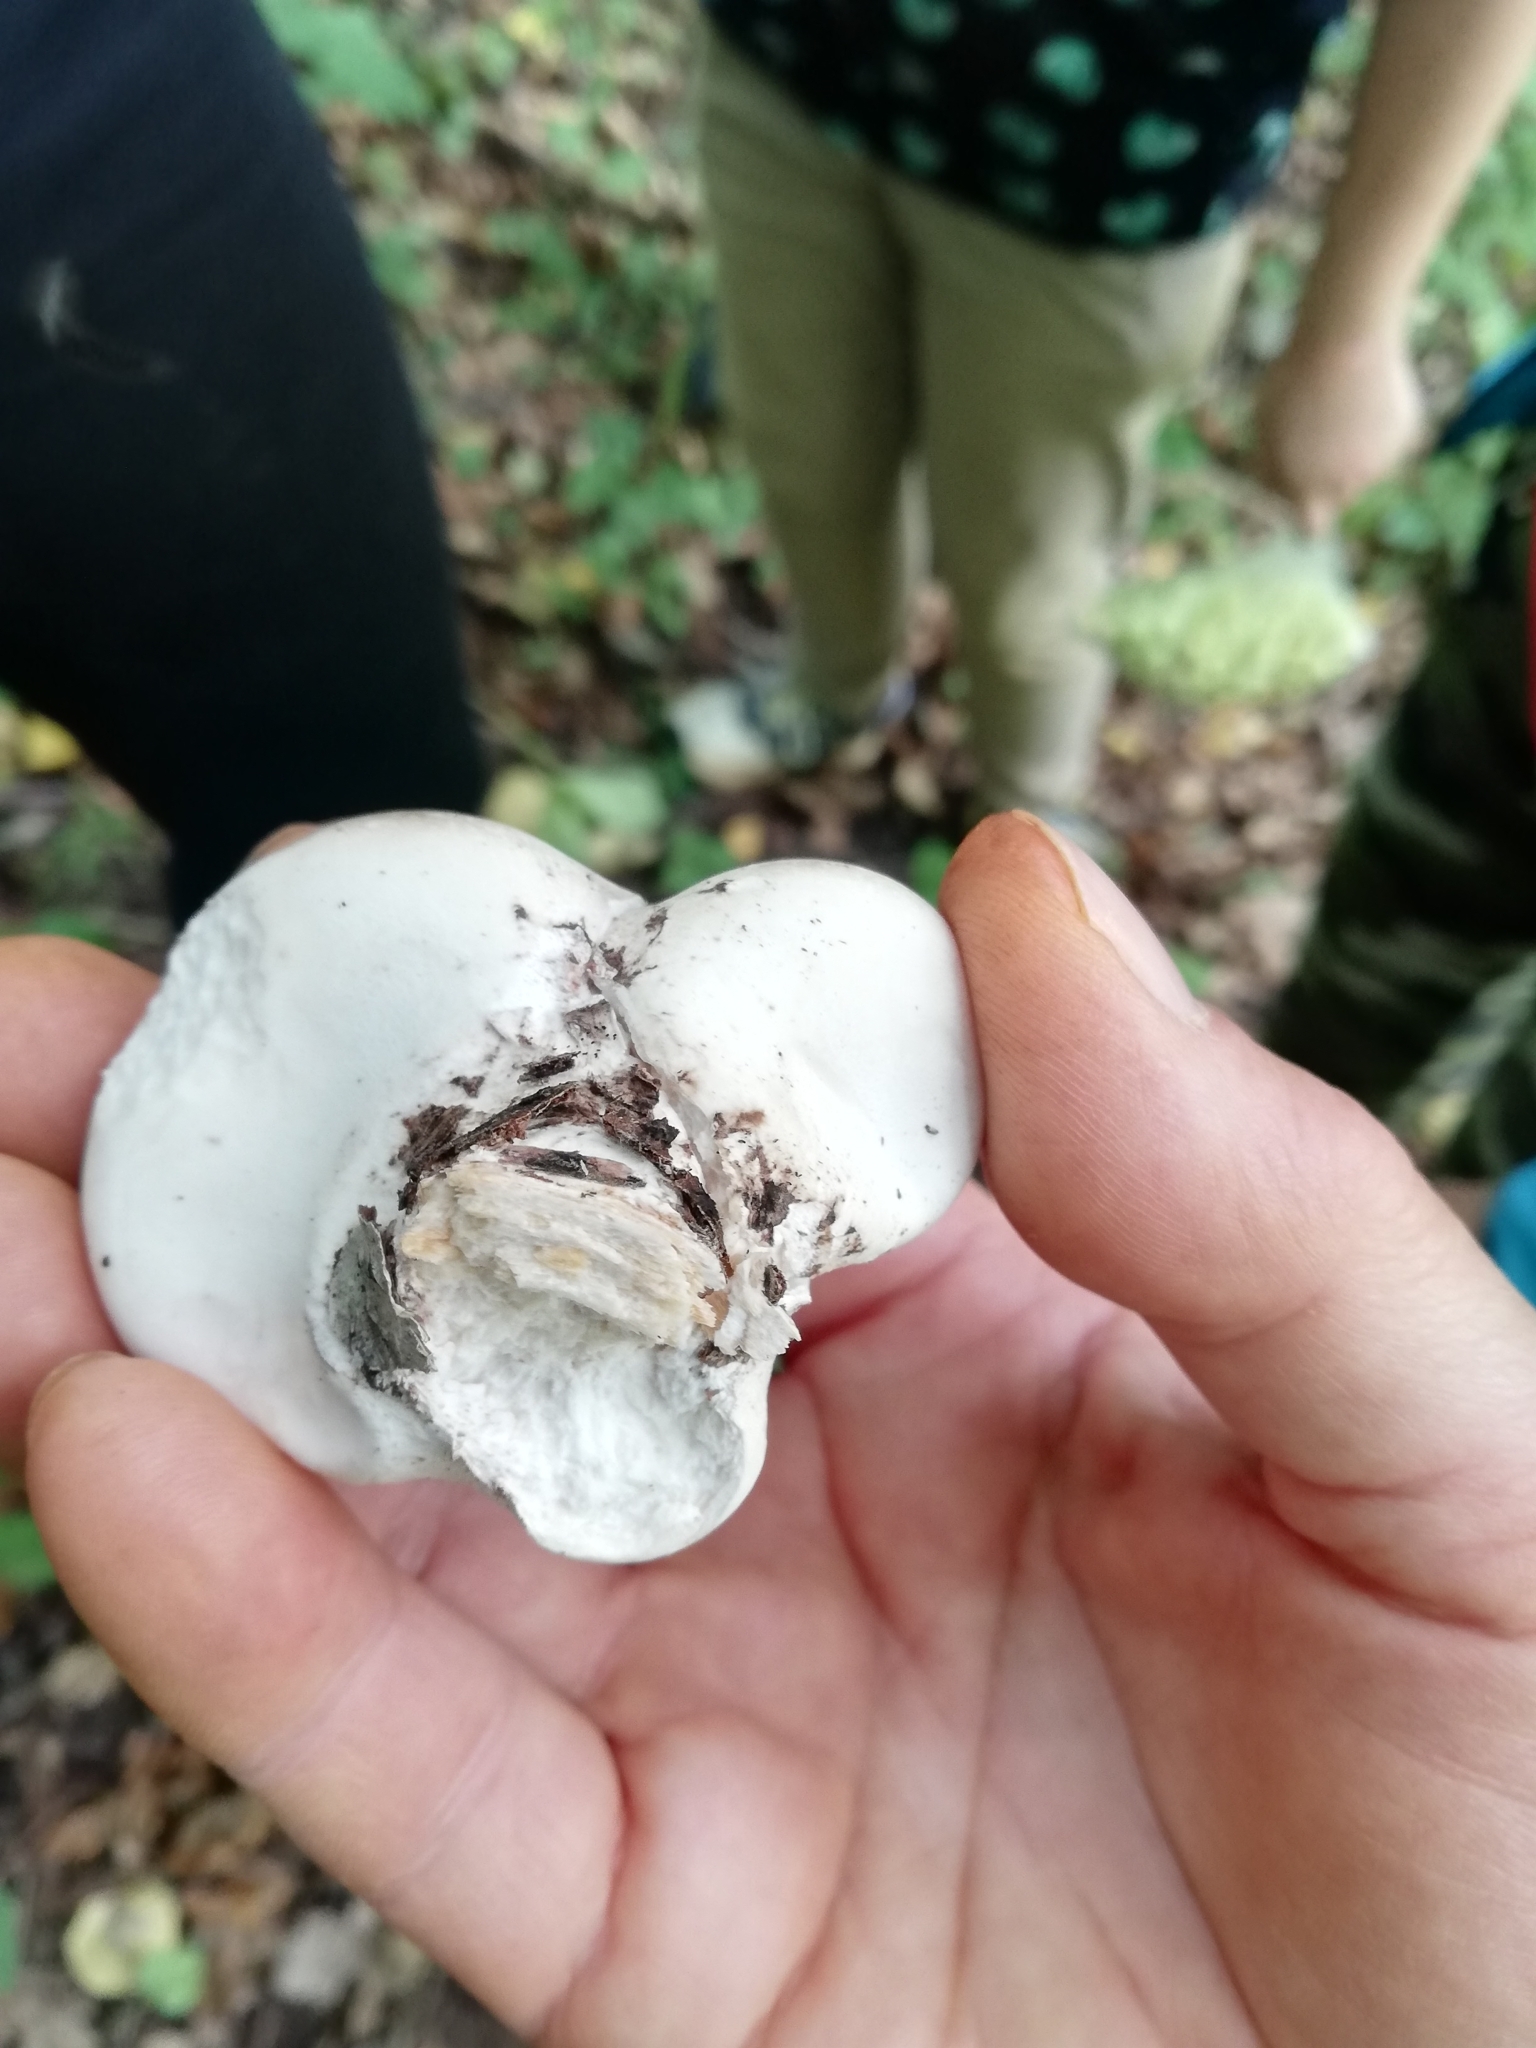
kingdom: Fungi
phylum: Basidiomycota
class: Agaricomycetes
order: Polyporales
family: Fomitopsidaceae
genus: Fomitopsis
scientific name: Fomitopsis betulina
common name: Birch polypore
